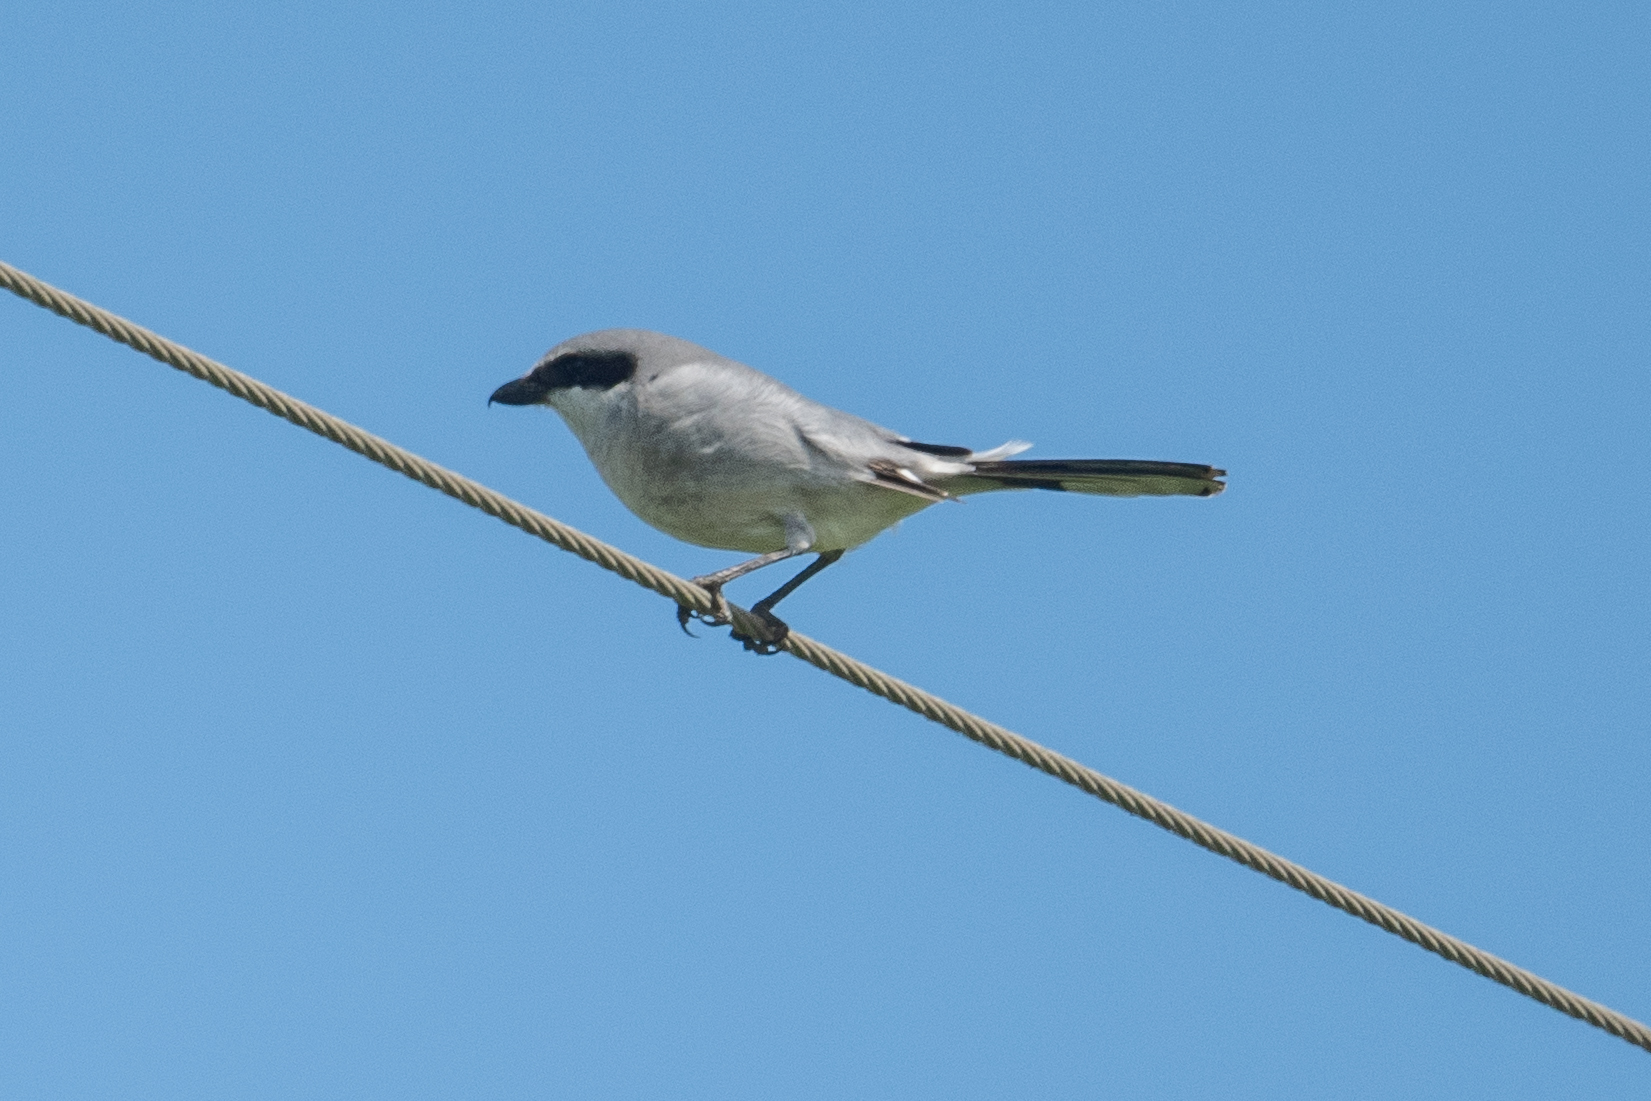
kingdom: Animalia
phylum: Chordata
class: Aves
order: Passeriformes
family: Laniidae
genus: Lanius
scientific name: Lanius ludovicianus
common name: Loggerhead shrike
